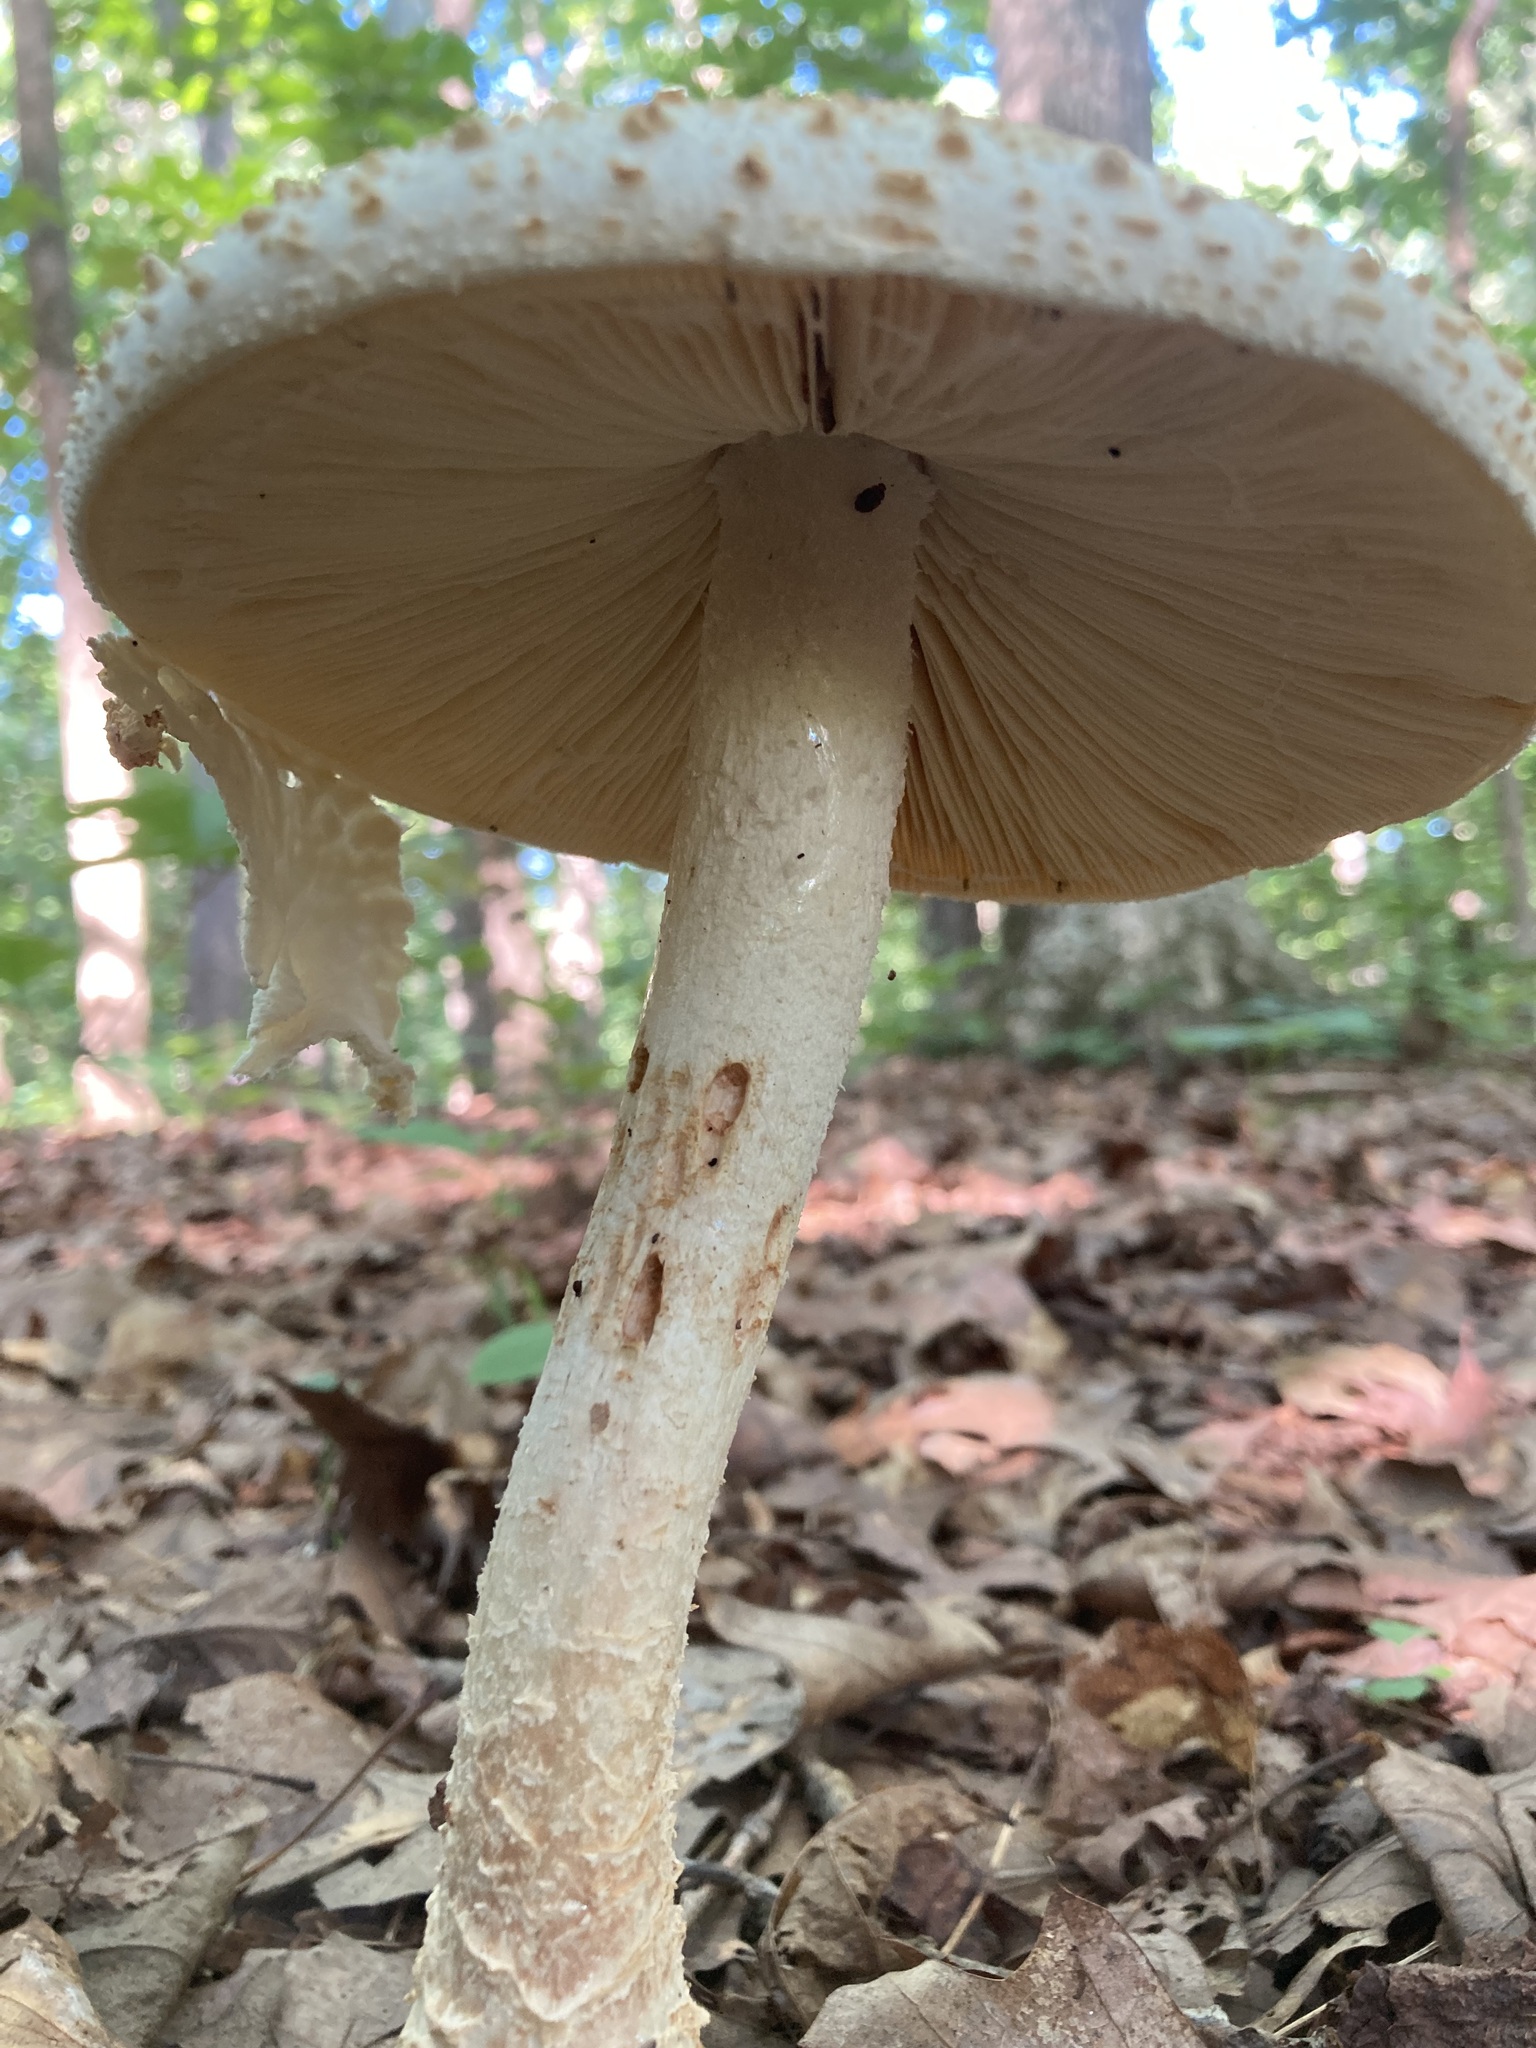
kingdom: Fungi
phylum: Basidiomycota
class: Agaricomycetes
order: Agaricales
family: Amanitaceae
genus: Amanita
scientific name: Amanita daucipes
